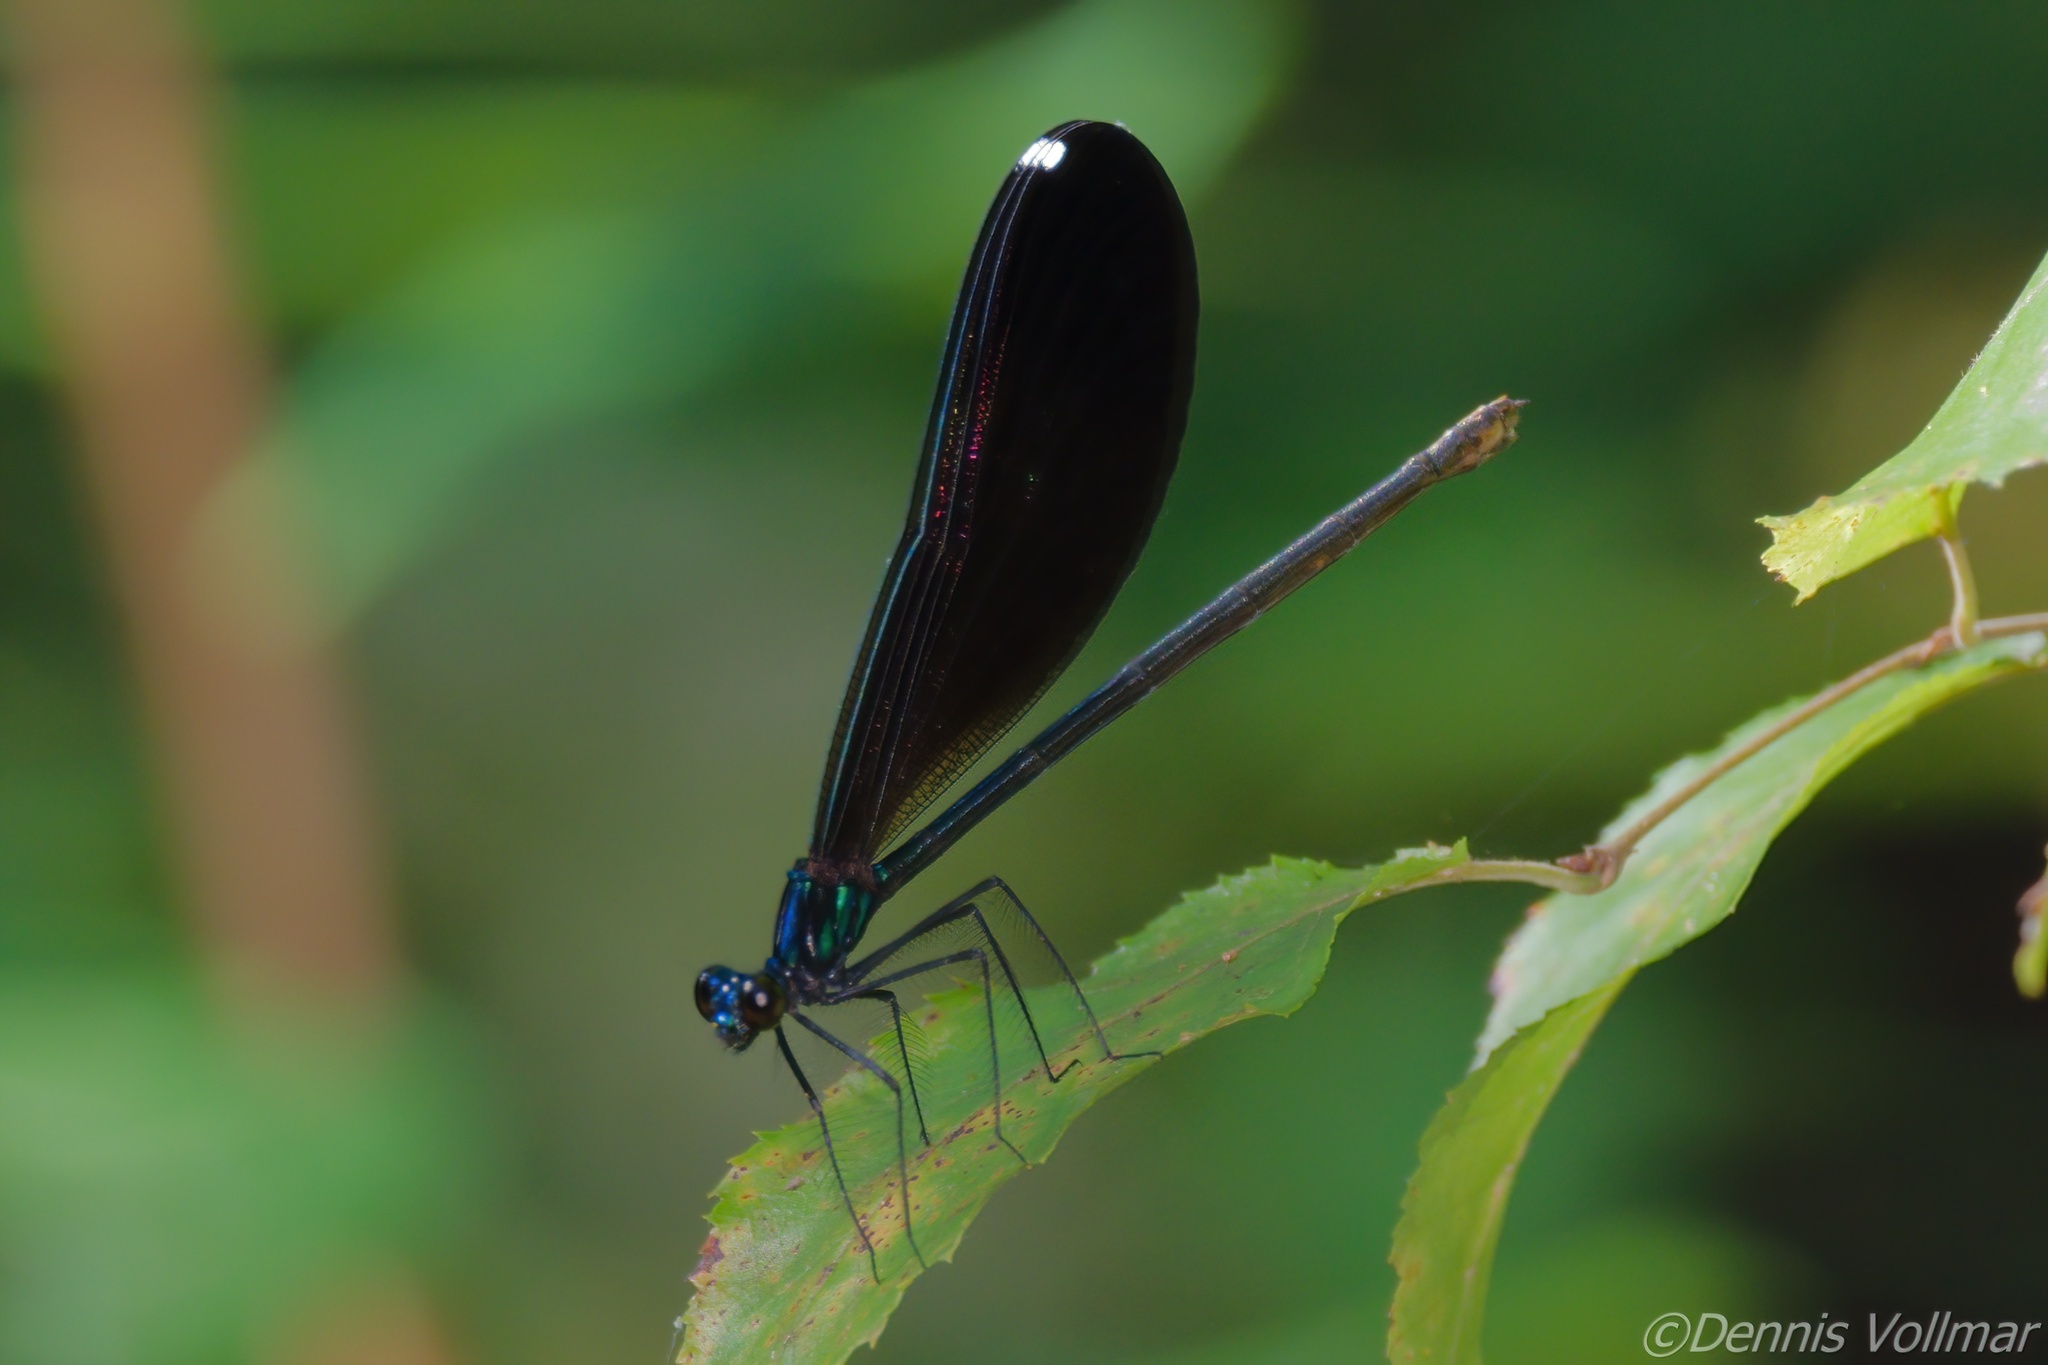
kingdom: Animalia
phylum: Arthropoda
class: Insecta
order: Odonata
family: Calopterygidae
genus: Calopteryx
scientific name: Calopteryx maculata
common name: Ebony jewelwing
